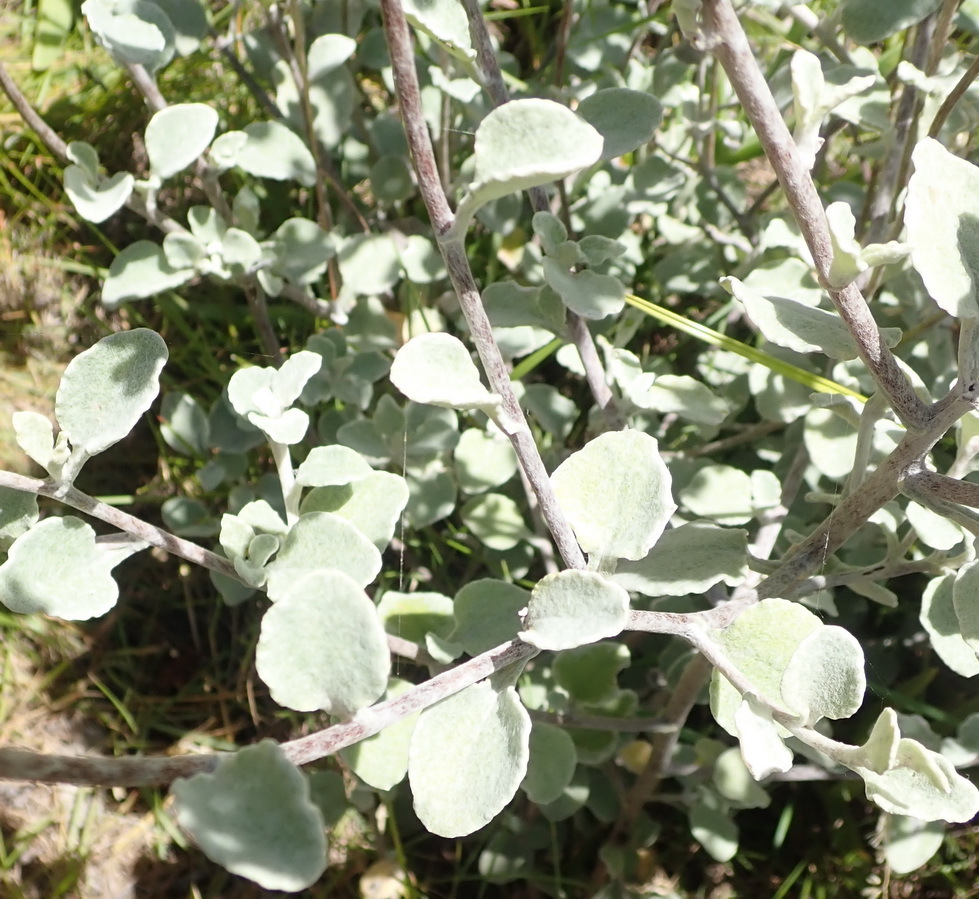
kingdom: Plantae
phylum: Tracheophyta
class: Magnoliopsida
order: Asterales
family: Asteraceae
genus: Helichrysum
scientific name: Helichrysum petiolare
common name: Licorice-plant
